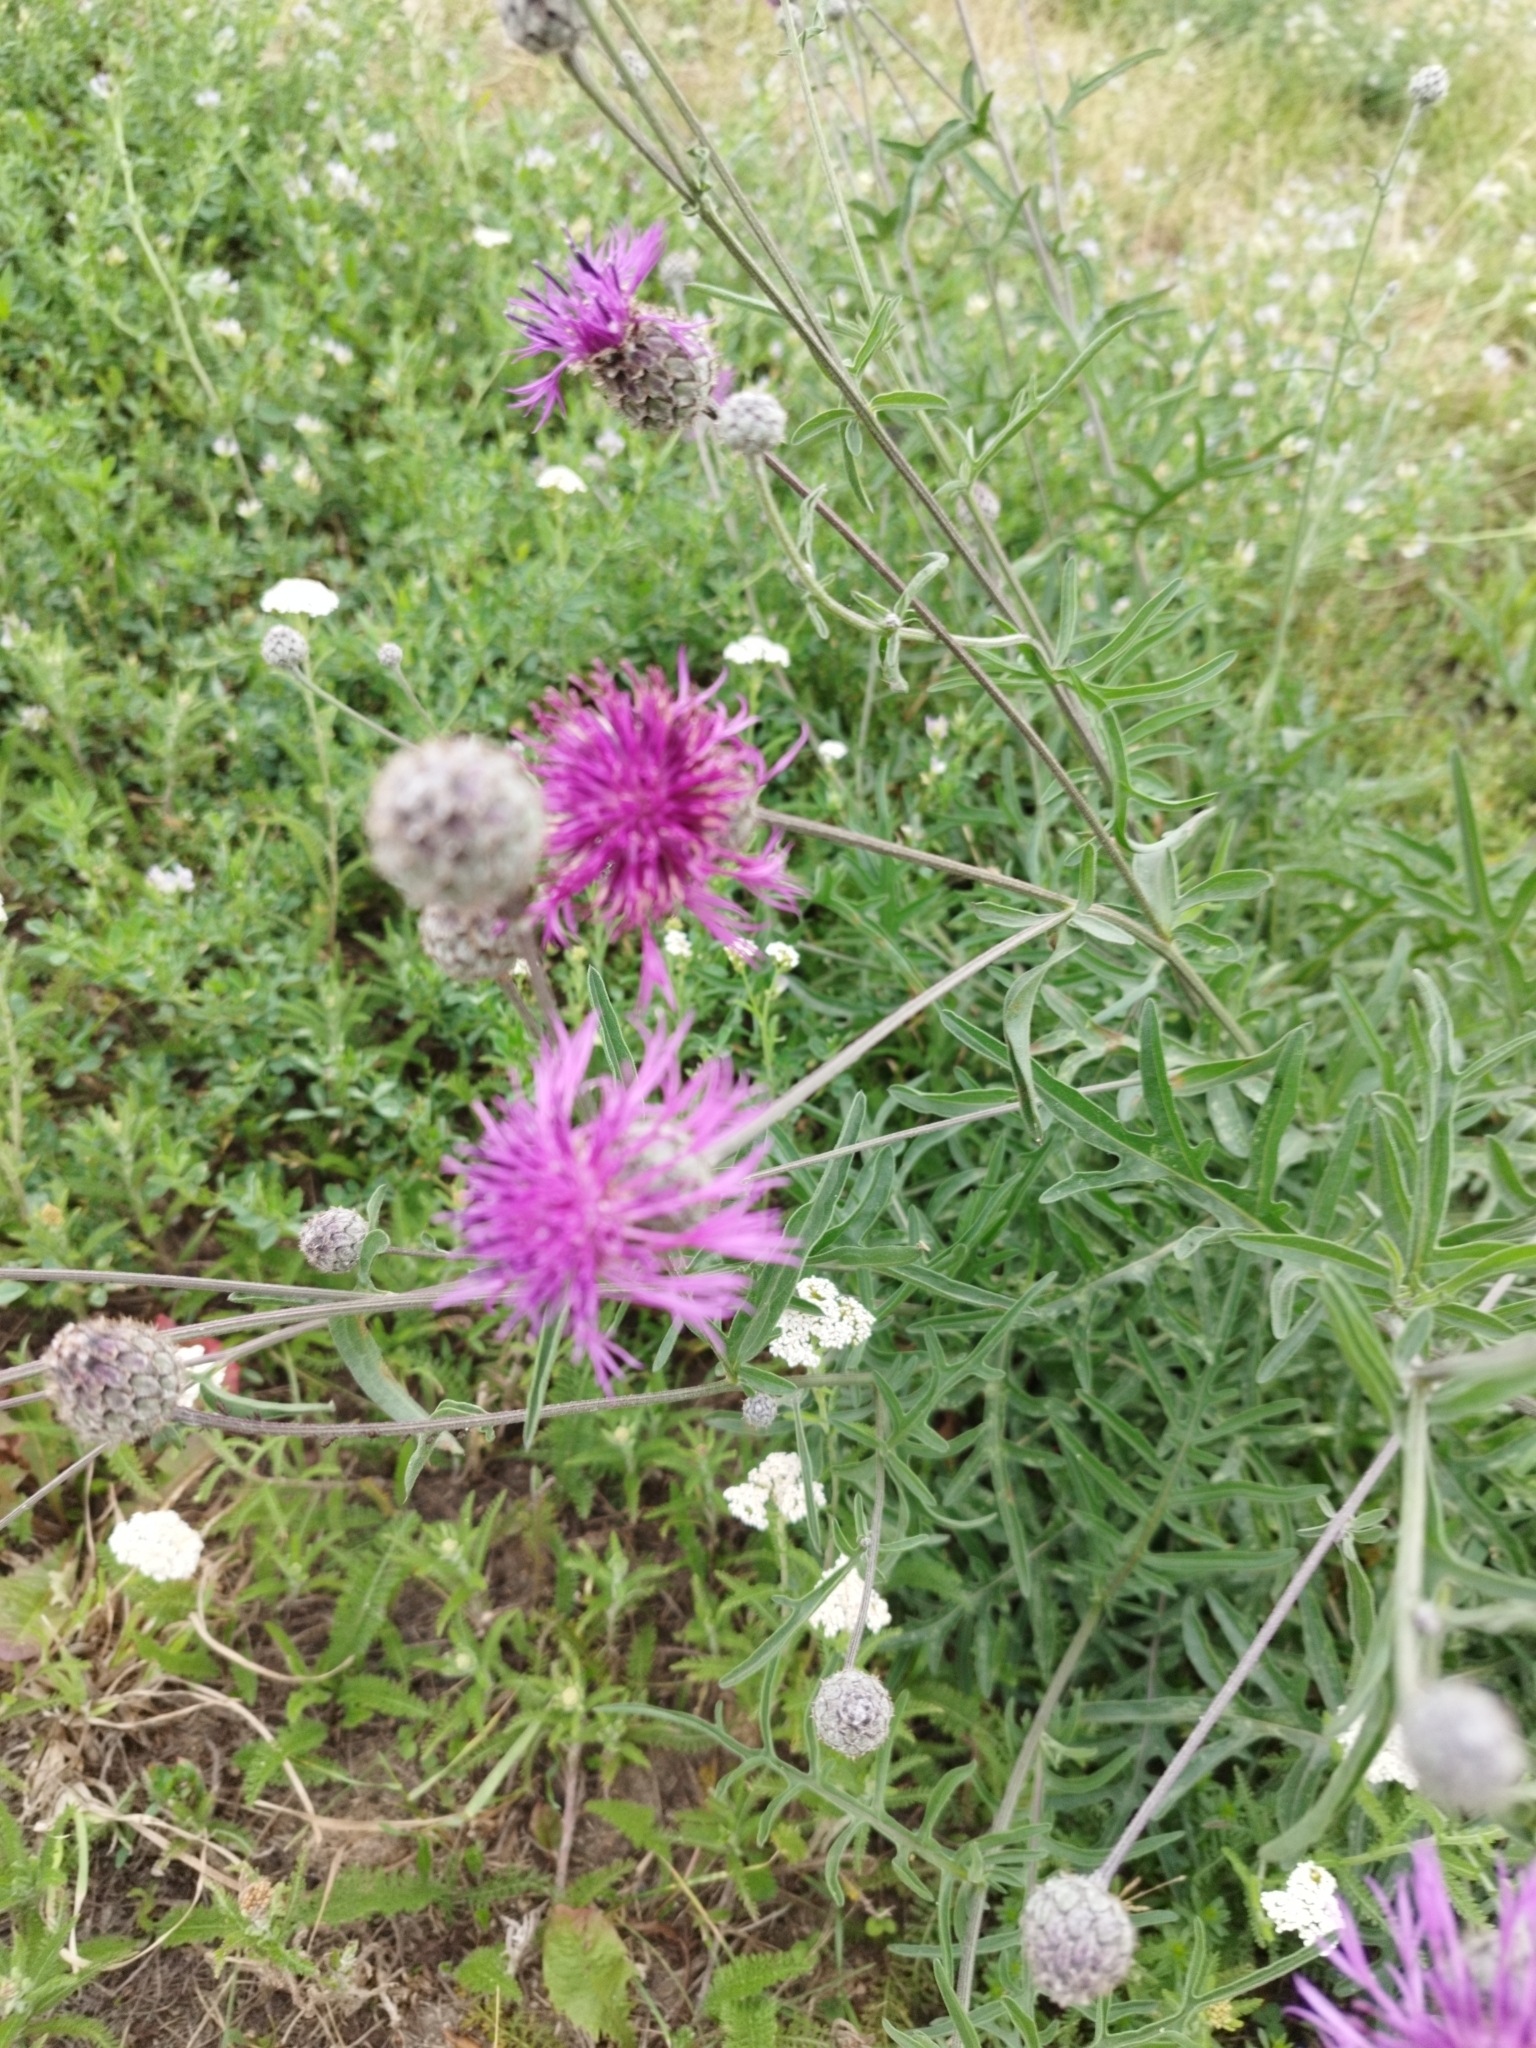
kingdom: Plantae
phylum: Tracheophyta
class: Magnoliopsida
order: Asterales
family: Asteraceae
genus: Centaurea
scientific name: Centaurea scabiosa
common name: Greater knapweed
